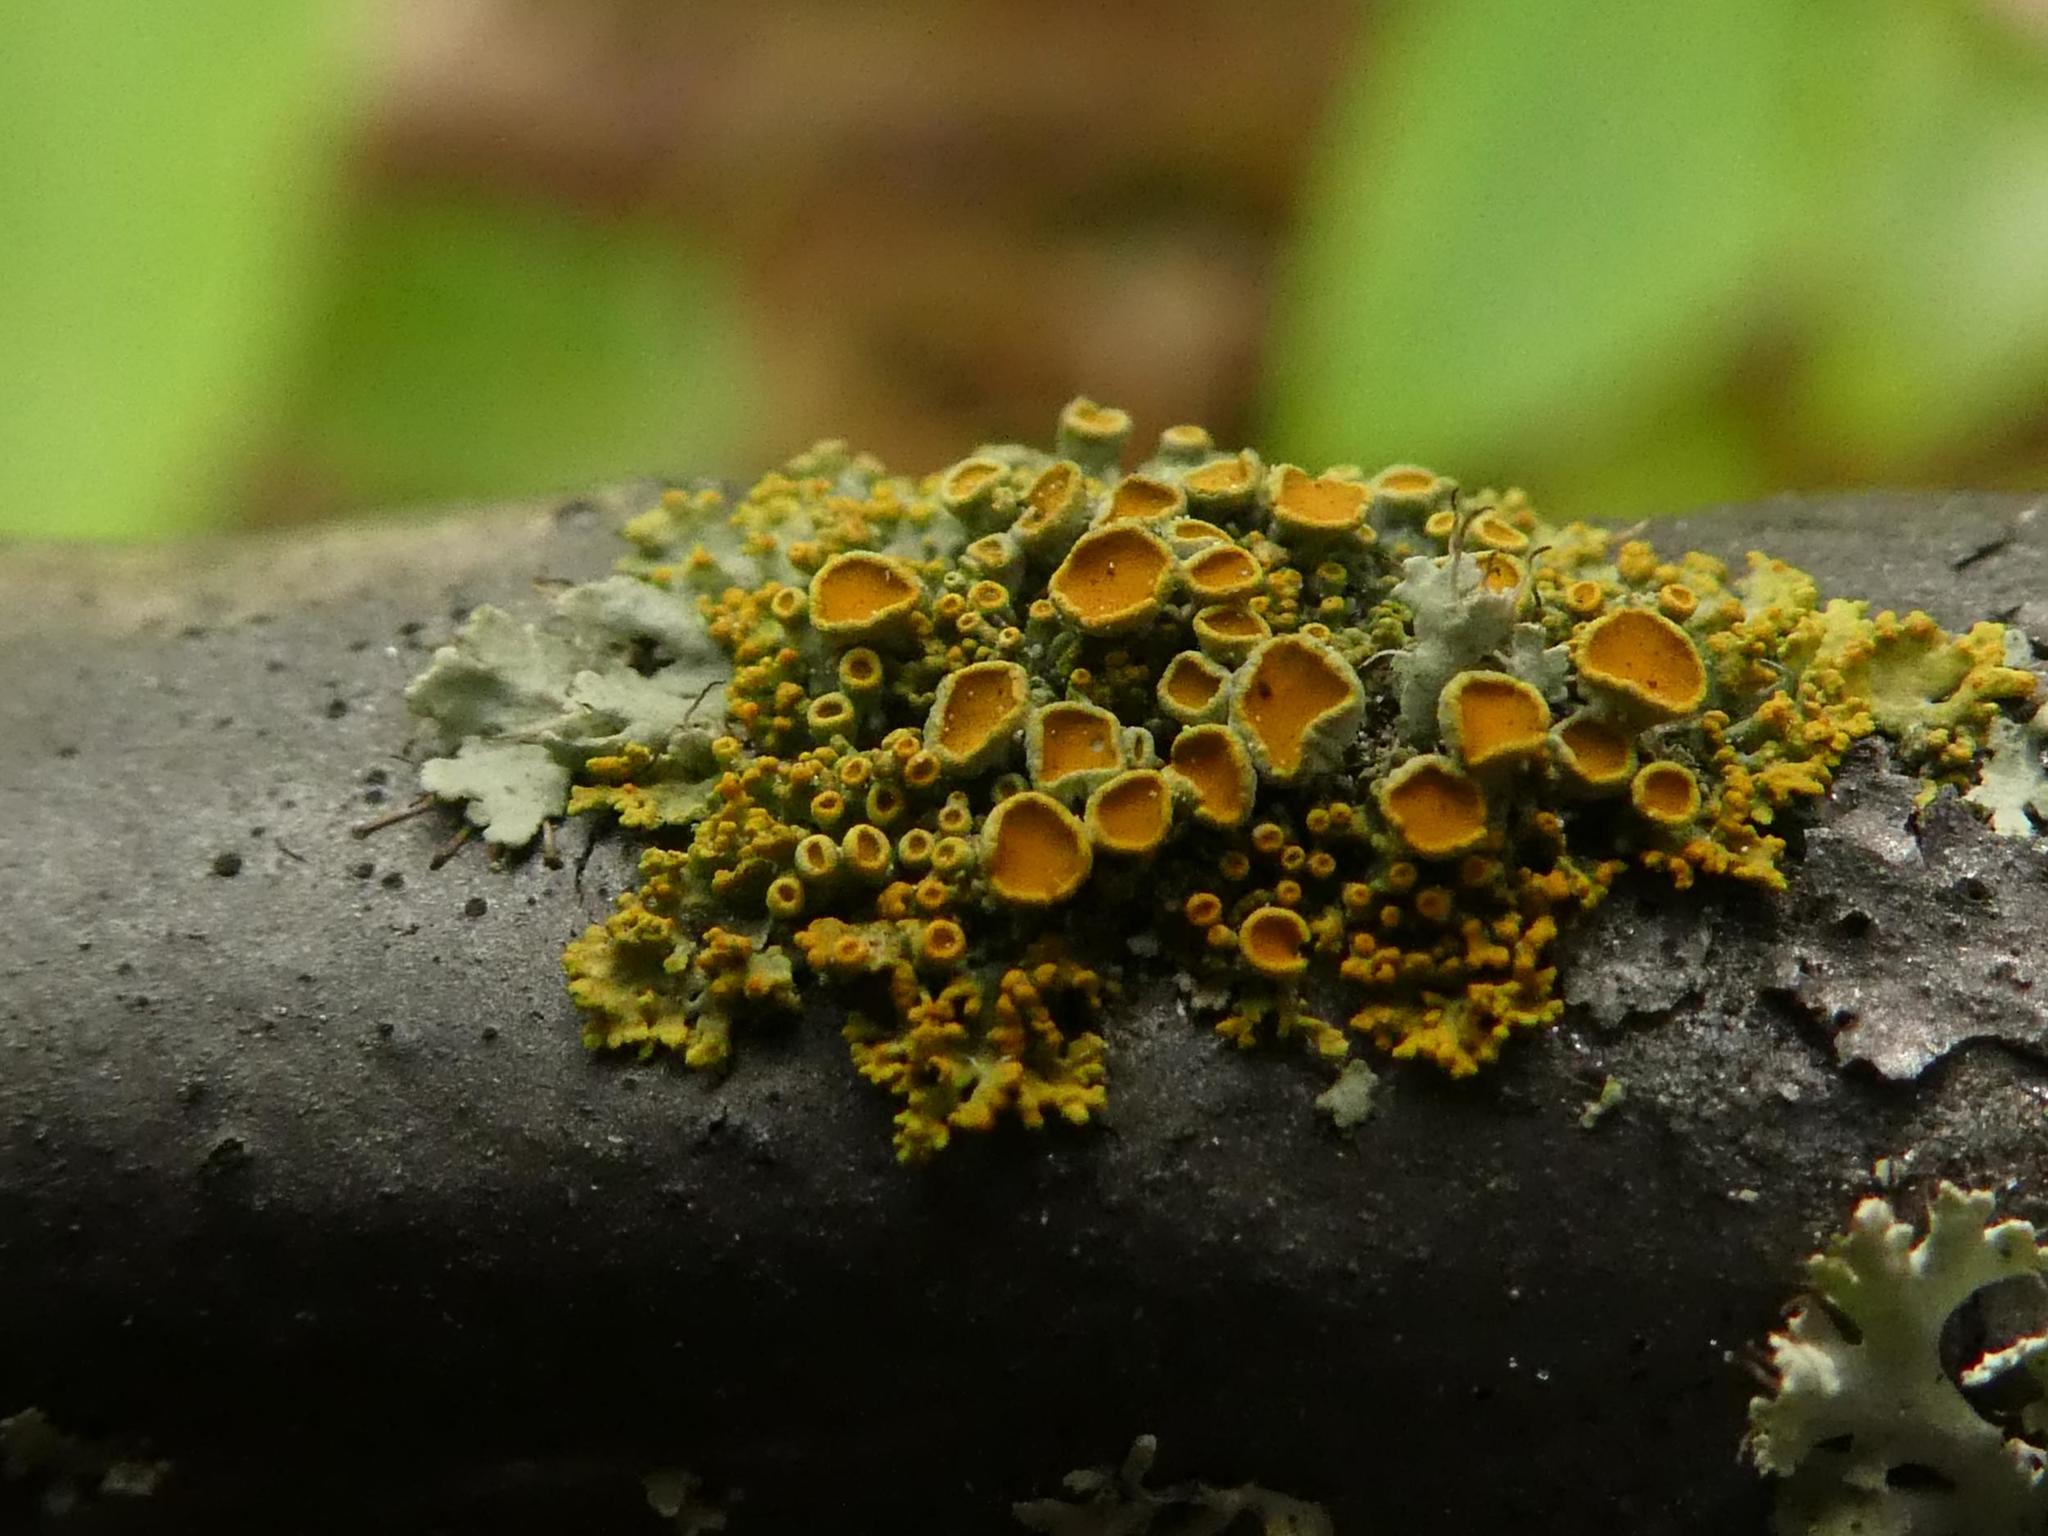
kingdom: Fungi
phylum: Ascomycota
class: Lecanoromycetes
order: Teloschistales
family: Teloschistaceae
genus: Polycauliona
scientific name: Polycauliona polycarpa
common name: Pin-cushion sunburst lichen
